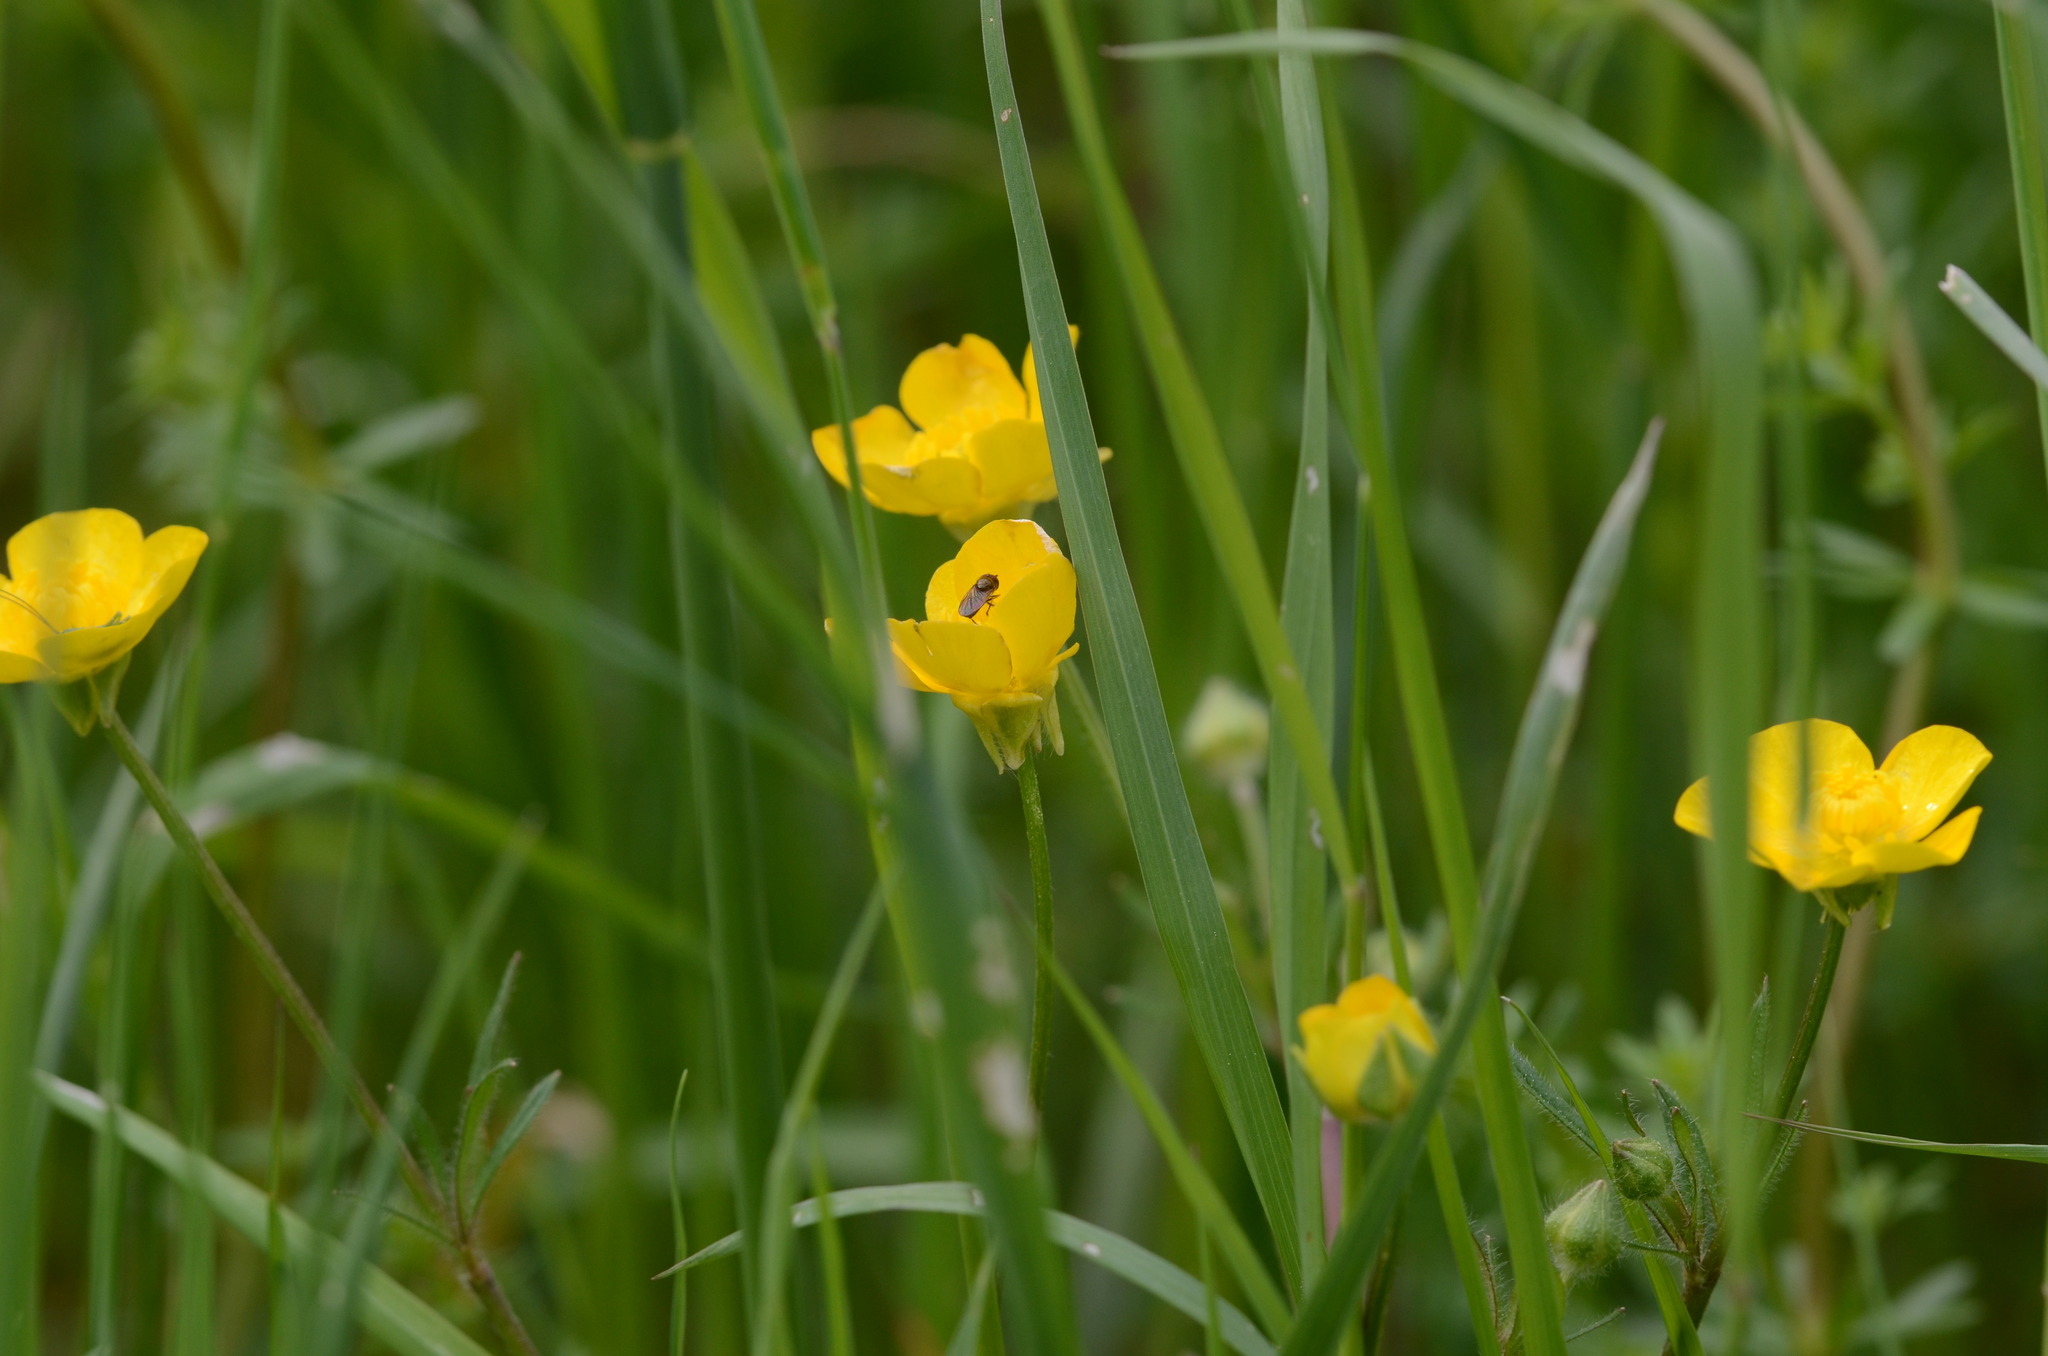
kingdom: Plantae
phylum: Tracheophyta
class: Magnoliopsida
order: Ranunculales
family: Ranunculaceae
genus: Ranunculus
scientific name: Ranunculus bulbosus
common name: Bulbous buttercup
